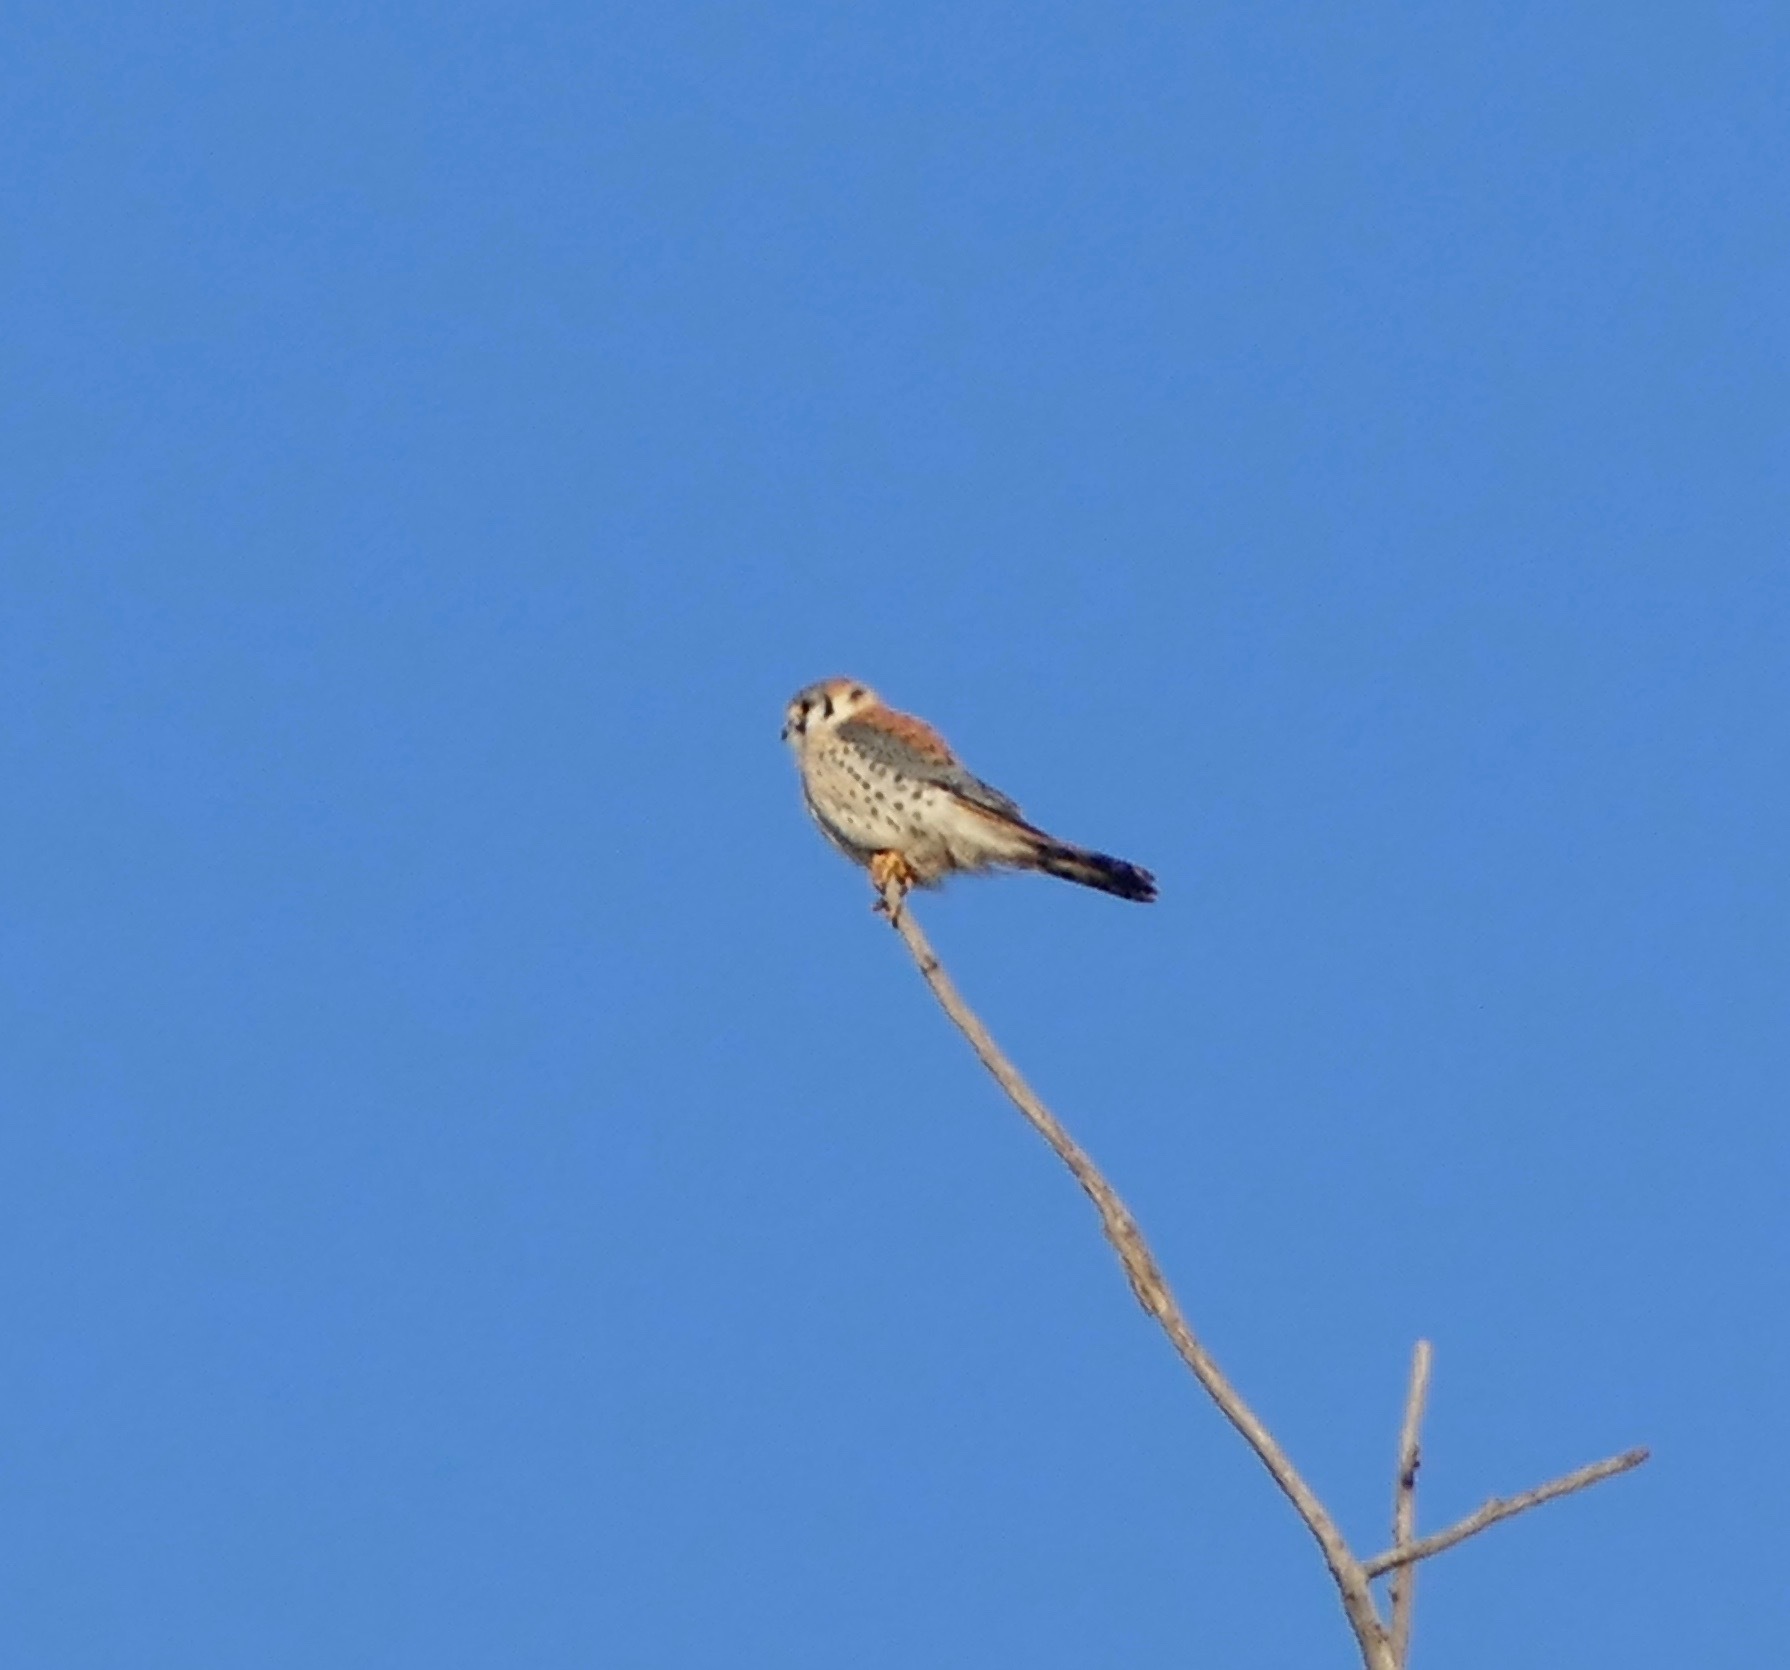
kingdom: Animalia
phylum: Chordata
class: Aves
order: Falconiformes
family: Falconidae
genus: Falco
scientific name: Falco sparverius
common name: American kestrel
